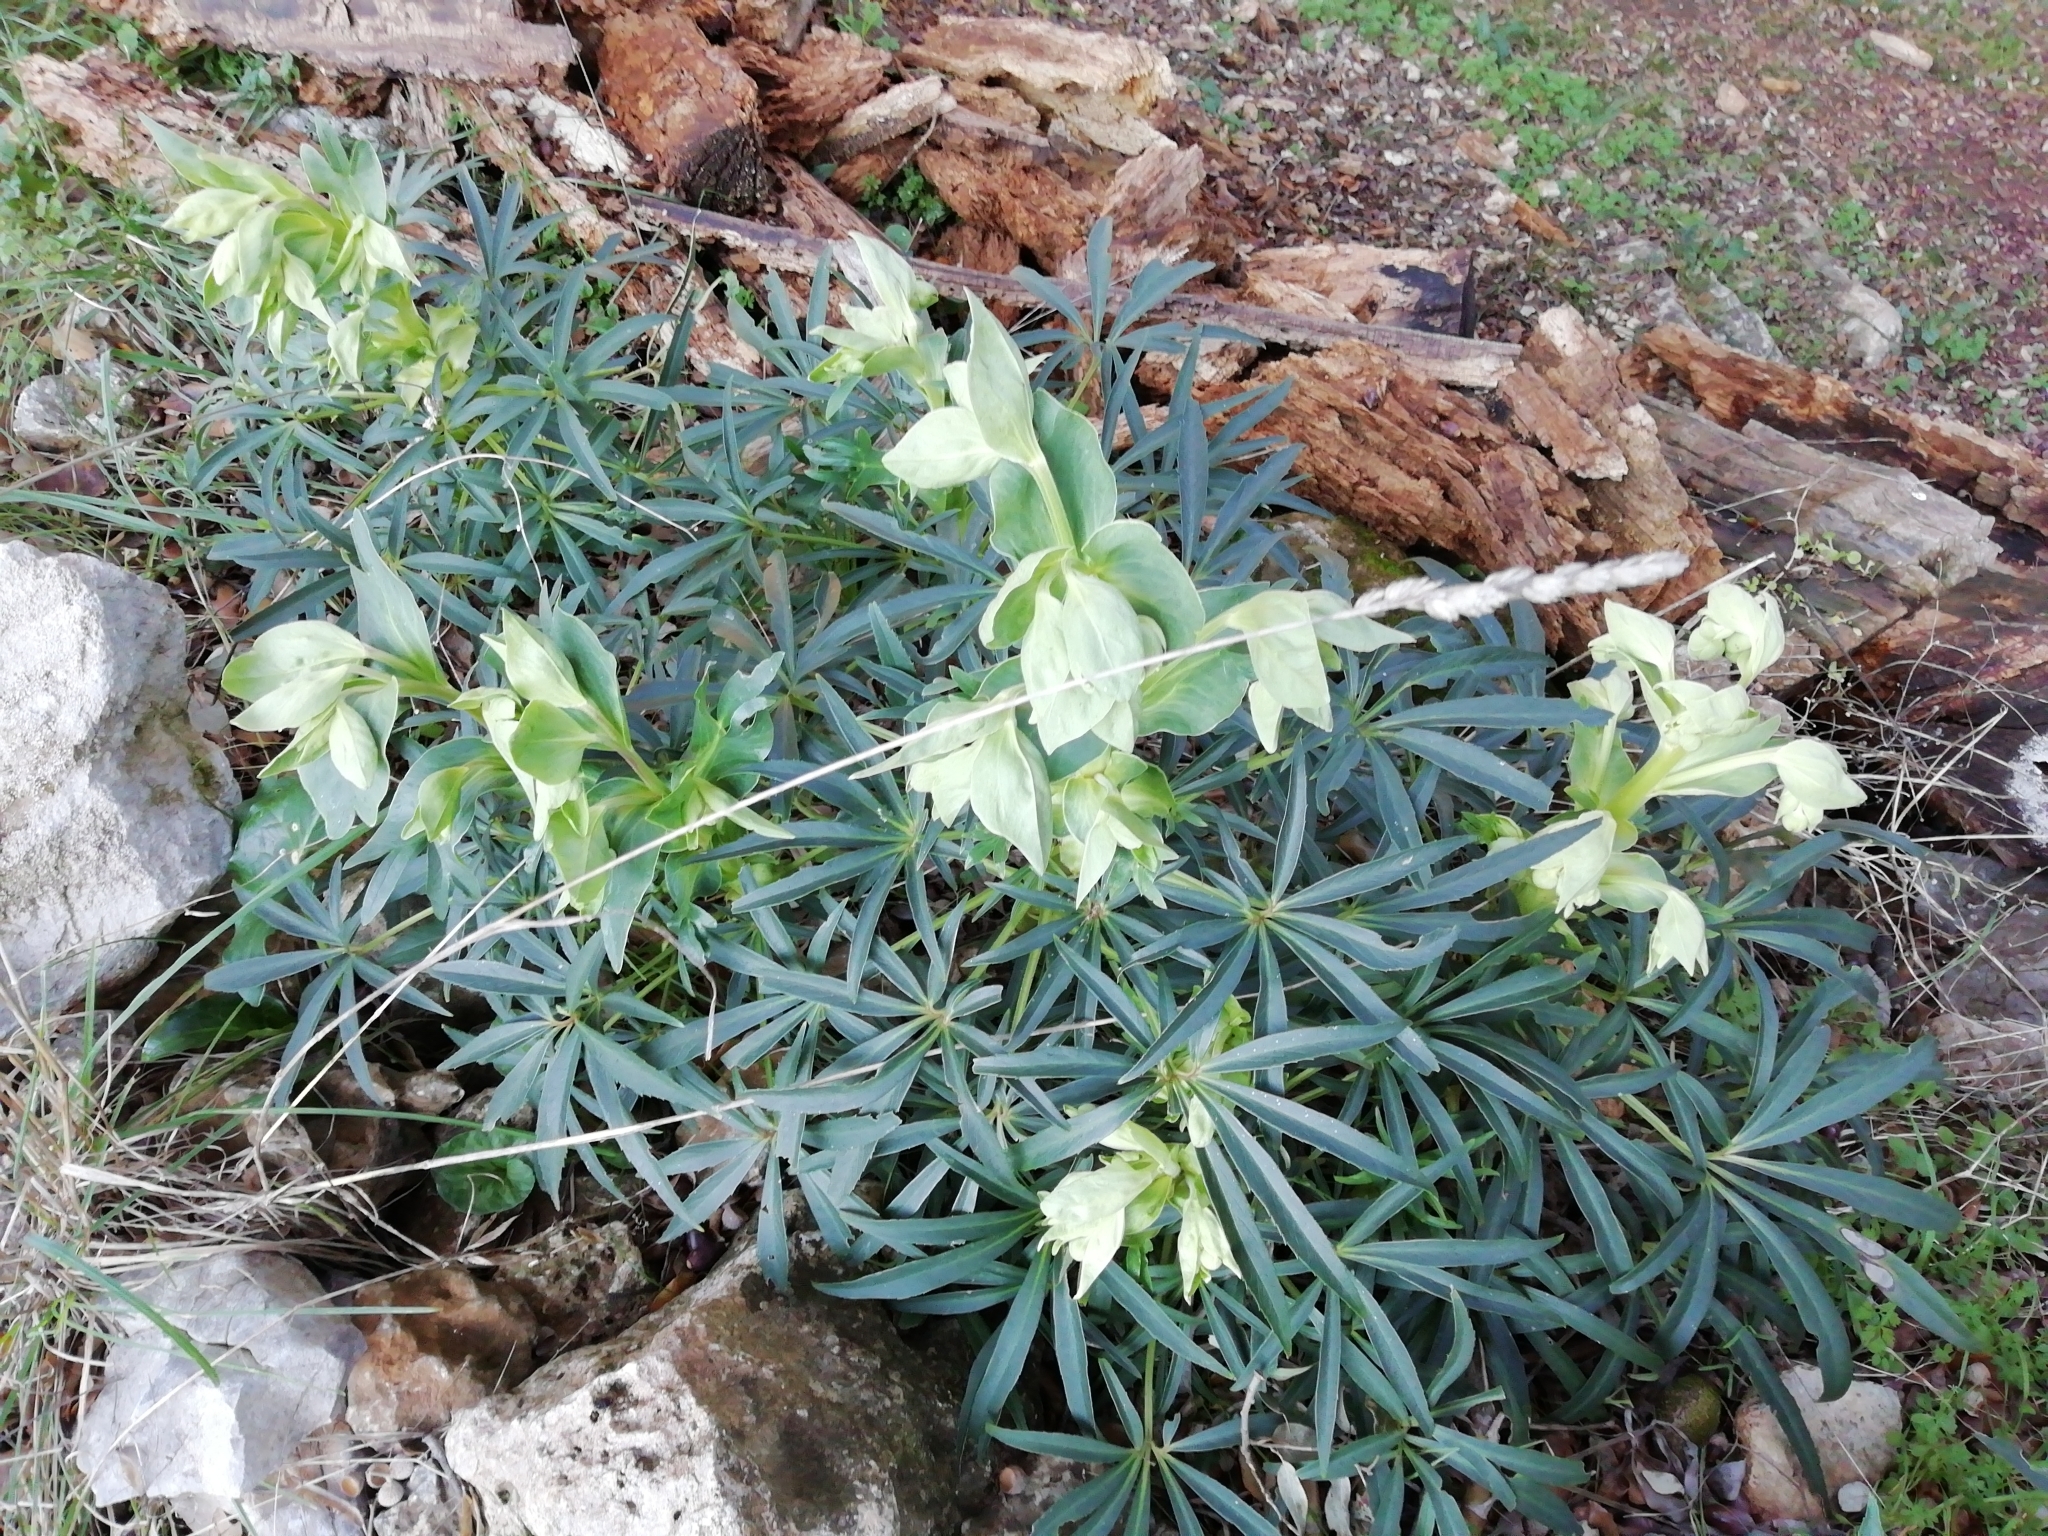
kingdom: Plantae
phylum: Tracheophyta
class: Magnoliopsida
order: Ranunculales
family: Ranunculaceae
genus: Helleborus
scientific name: Helleborus foetidus
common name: Stinking hellebore
